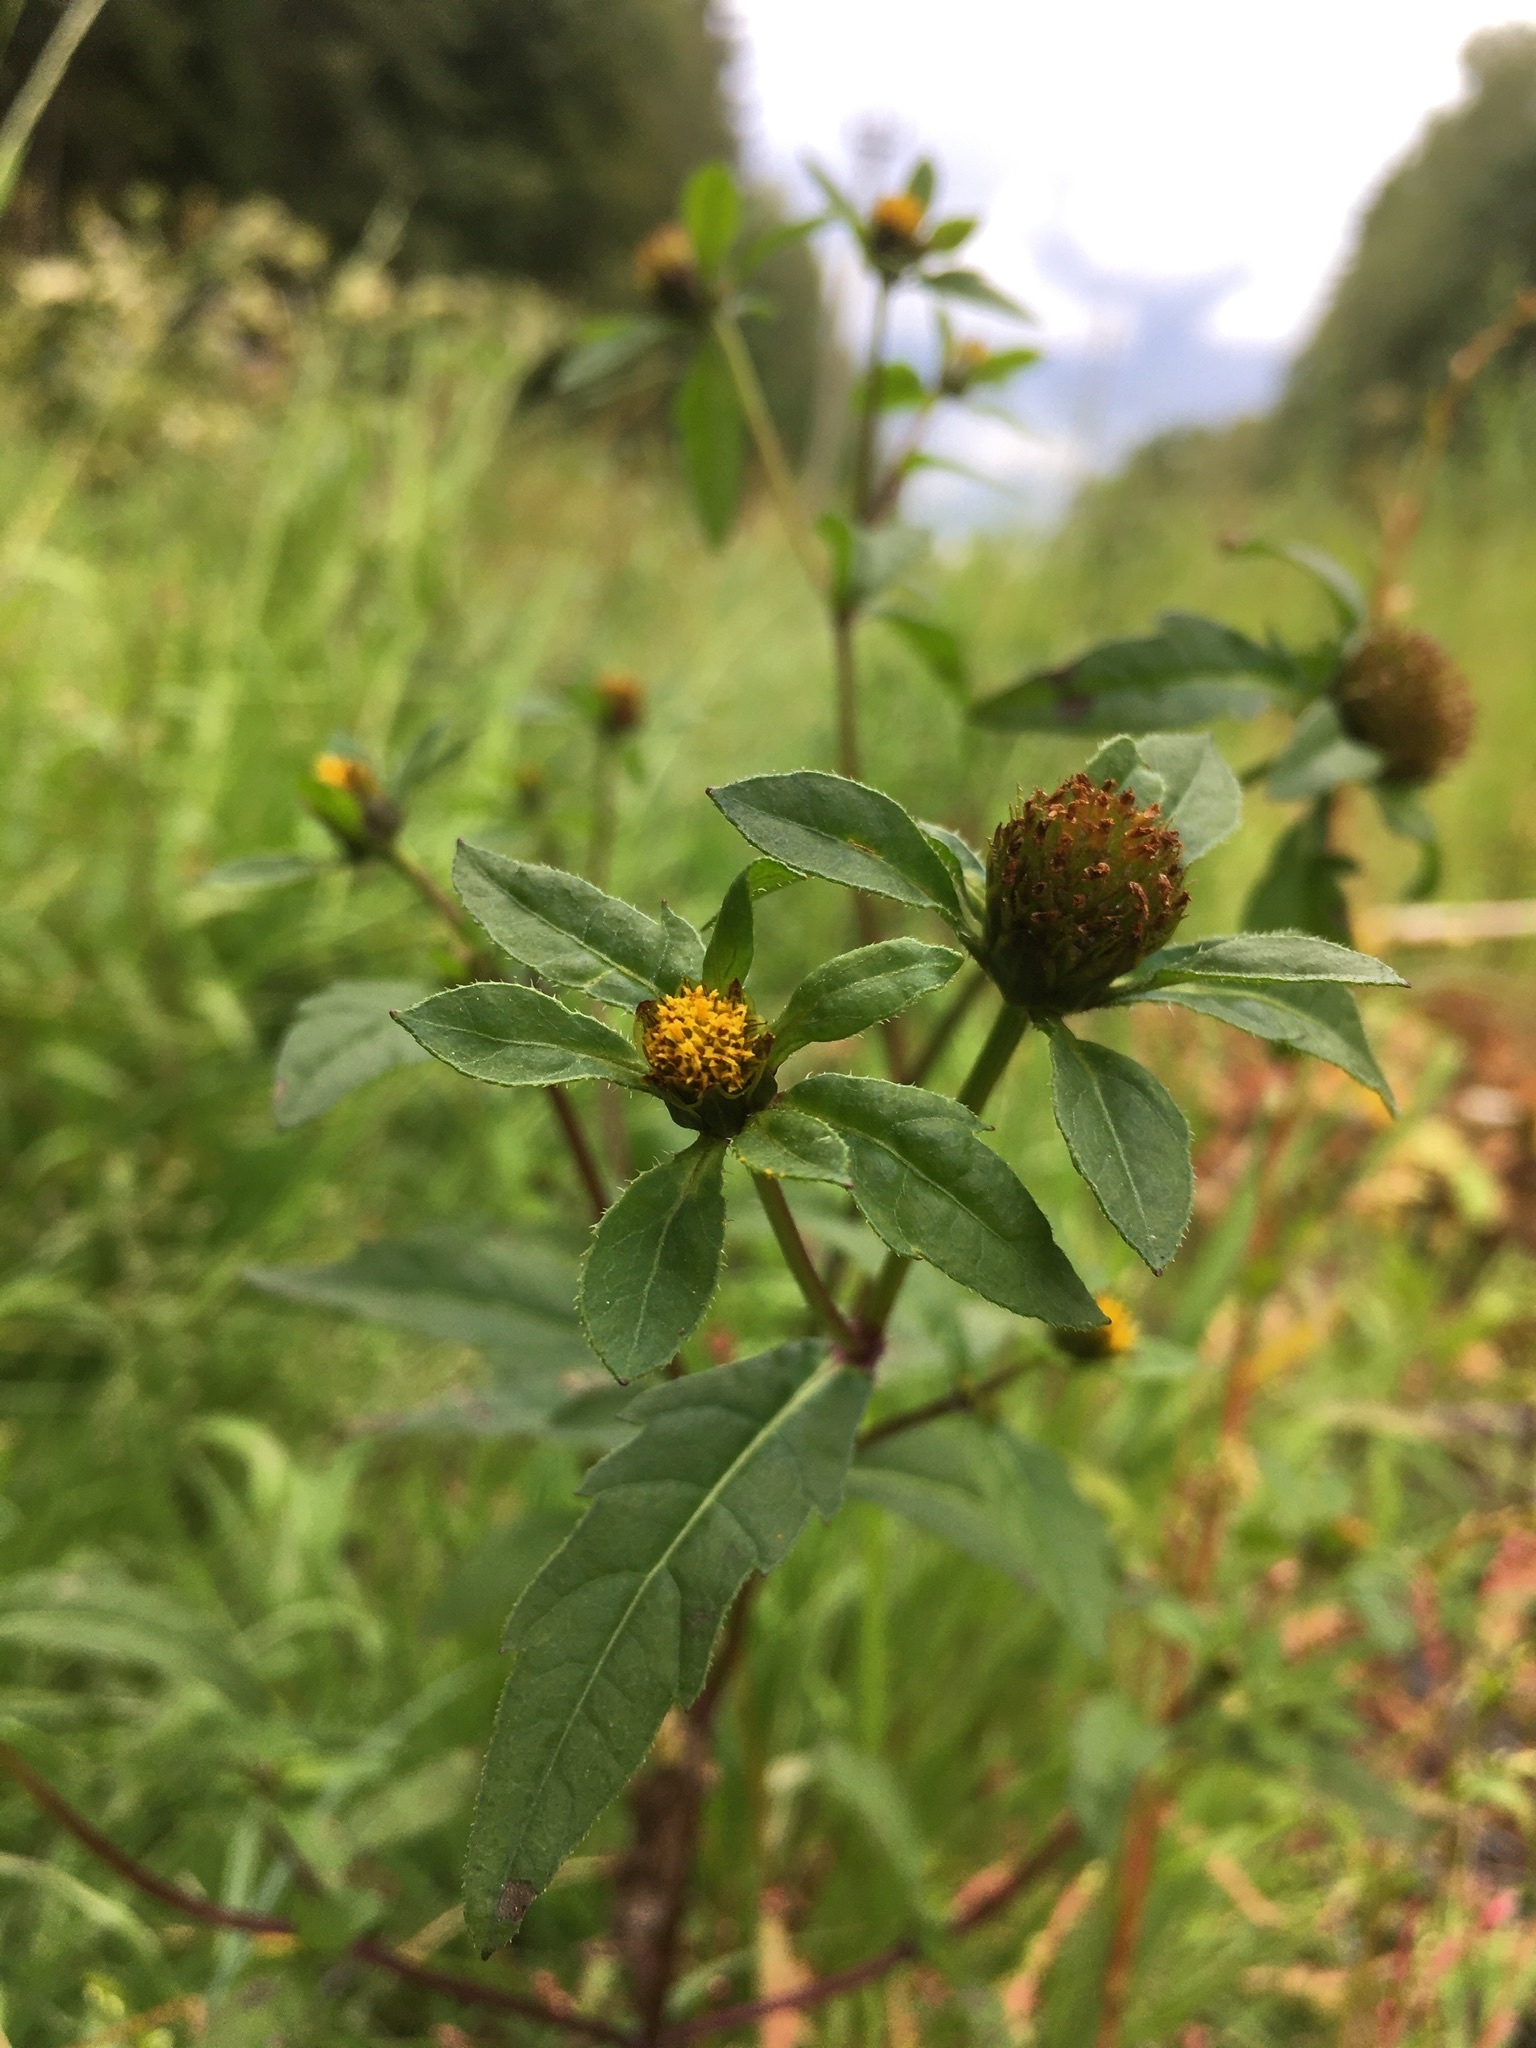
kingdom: Plantae
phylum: Tracheophyta
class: Magnoliopsida
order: Asterales
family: Asteraceae
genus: Bidens
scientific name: Bidens tripartita
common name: Trifid bur-marigold
